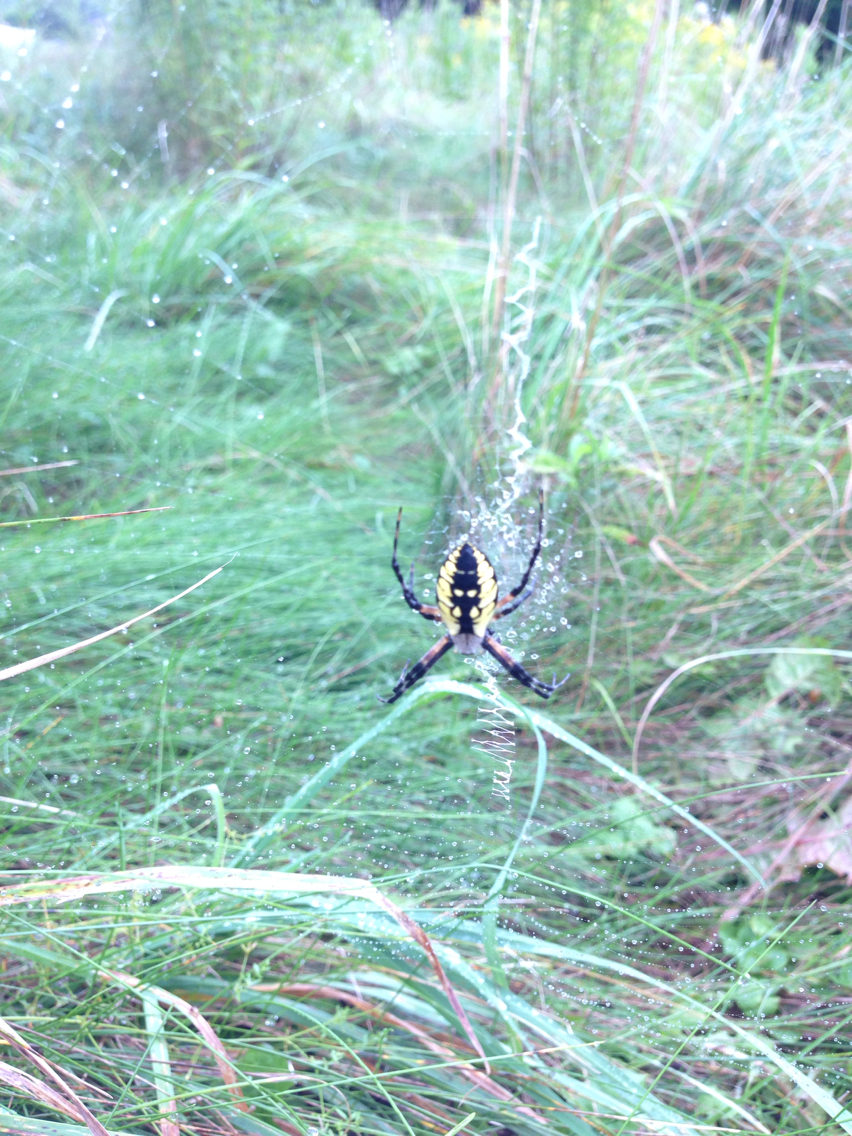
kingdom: Animalia
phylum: Arthropoda
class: Arachnida
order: Araneae
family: Araneidae
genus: Argiope
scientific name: Argiope aurantia
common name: Orb weavers
